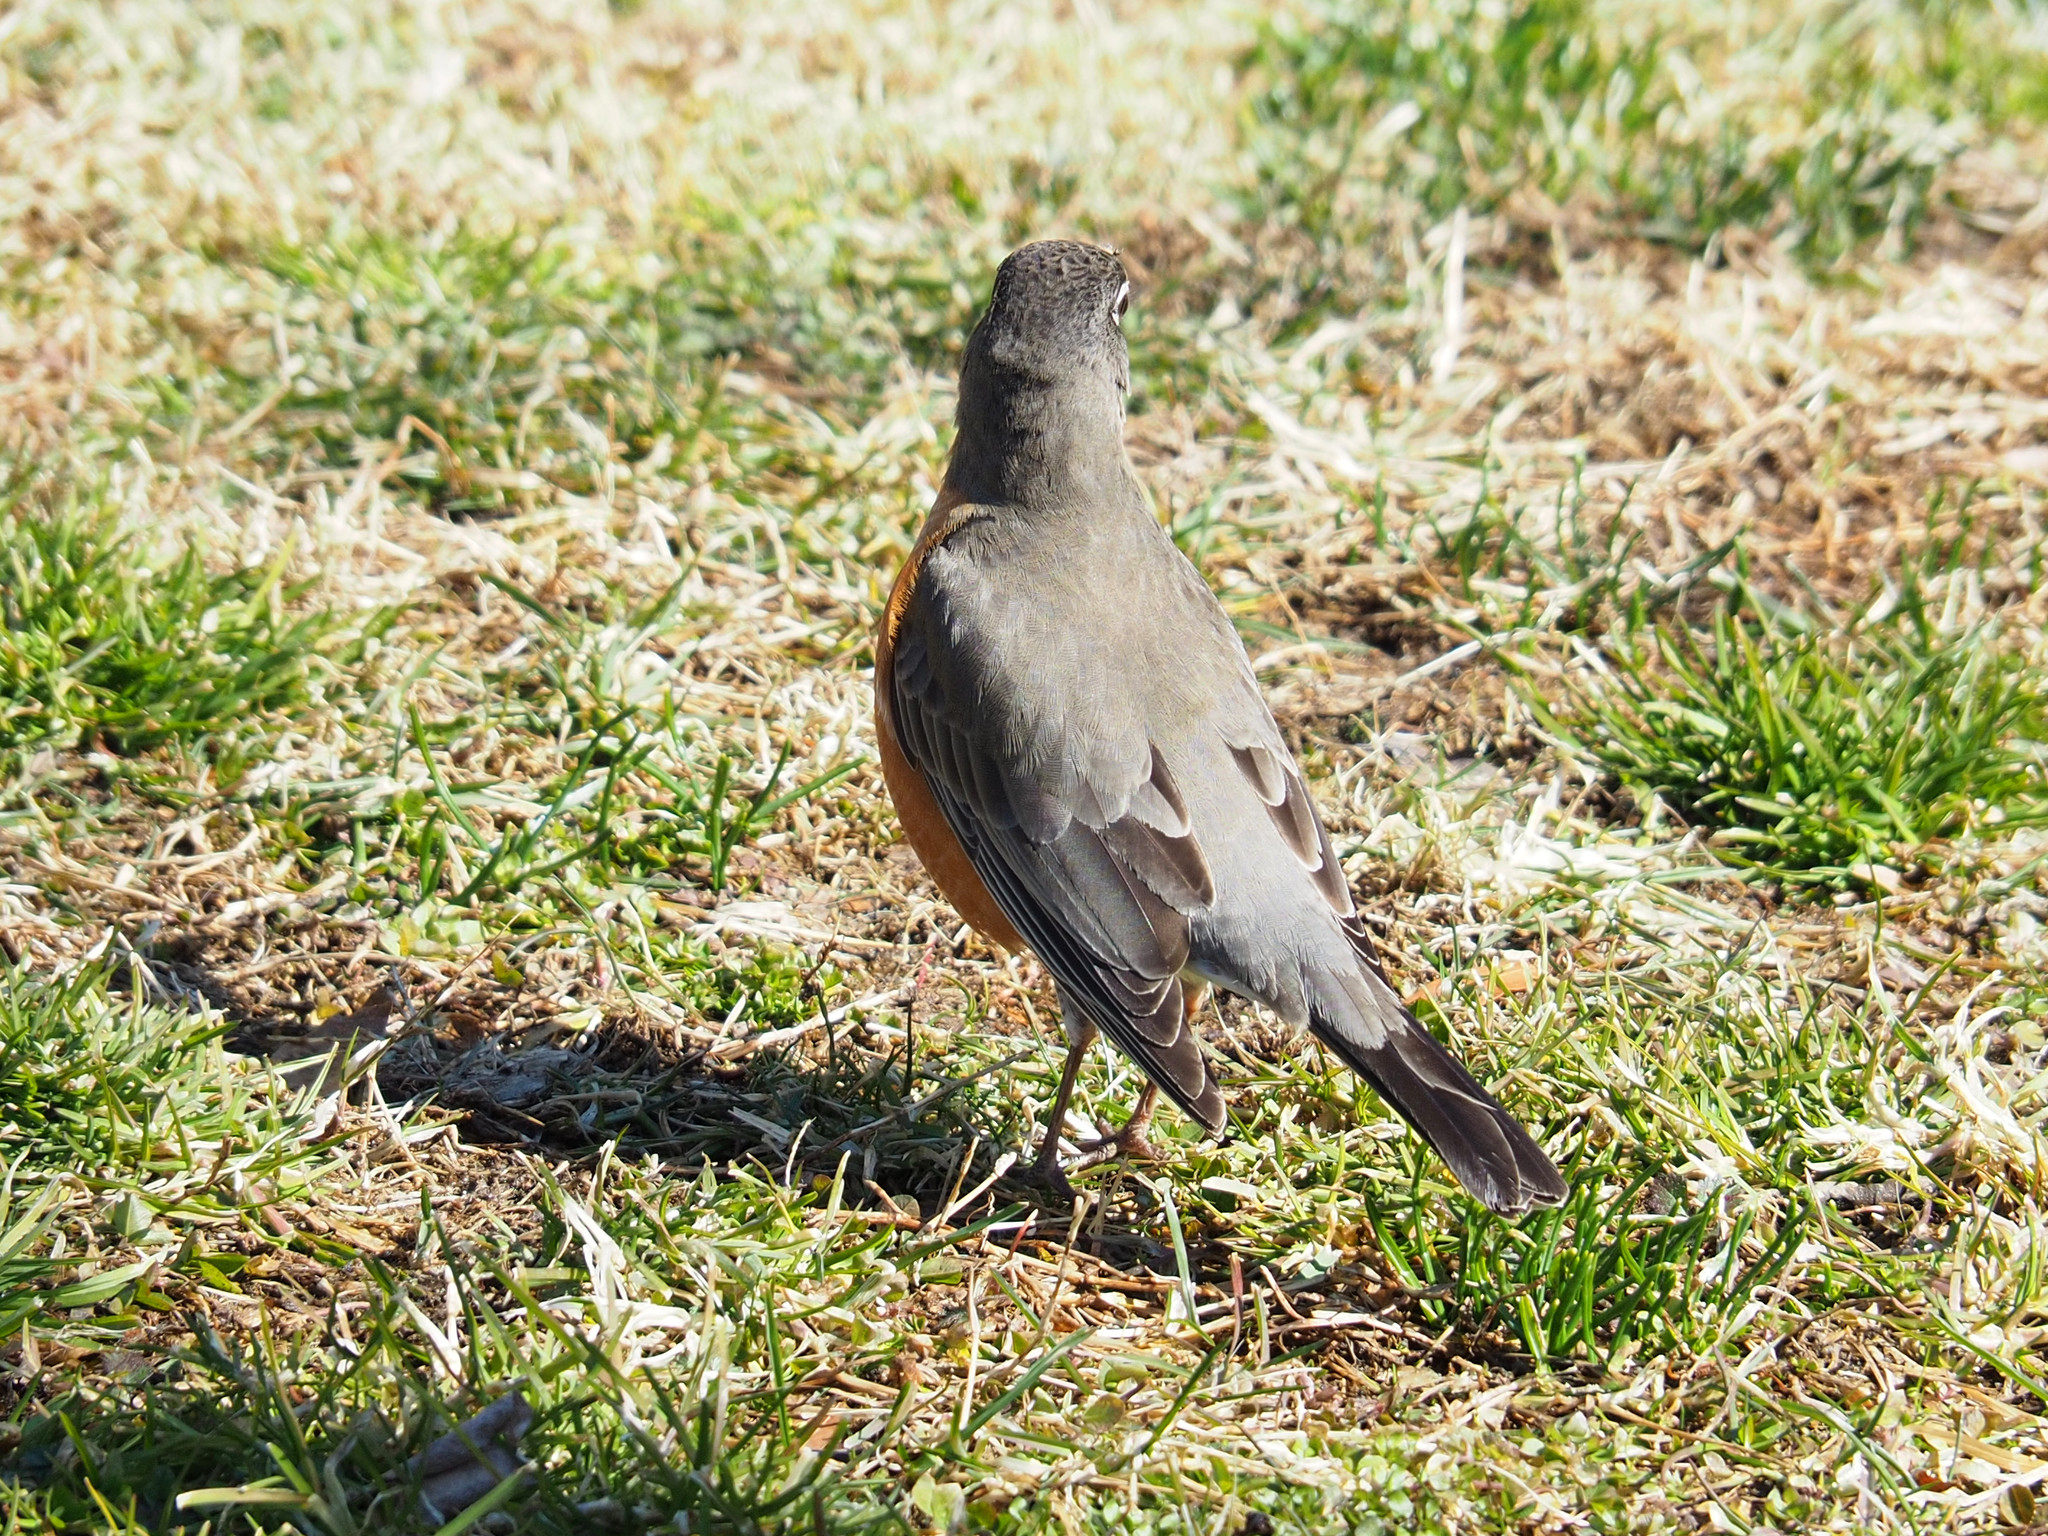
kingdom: Animalia
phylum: Chordata
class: Aves
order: Passeriformes
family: Turdidae
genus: Turdus
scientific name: Turdus migratorius
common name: American robin
